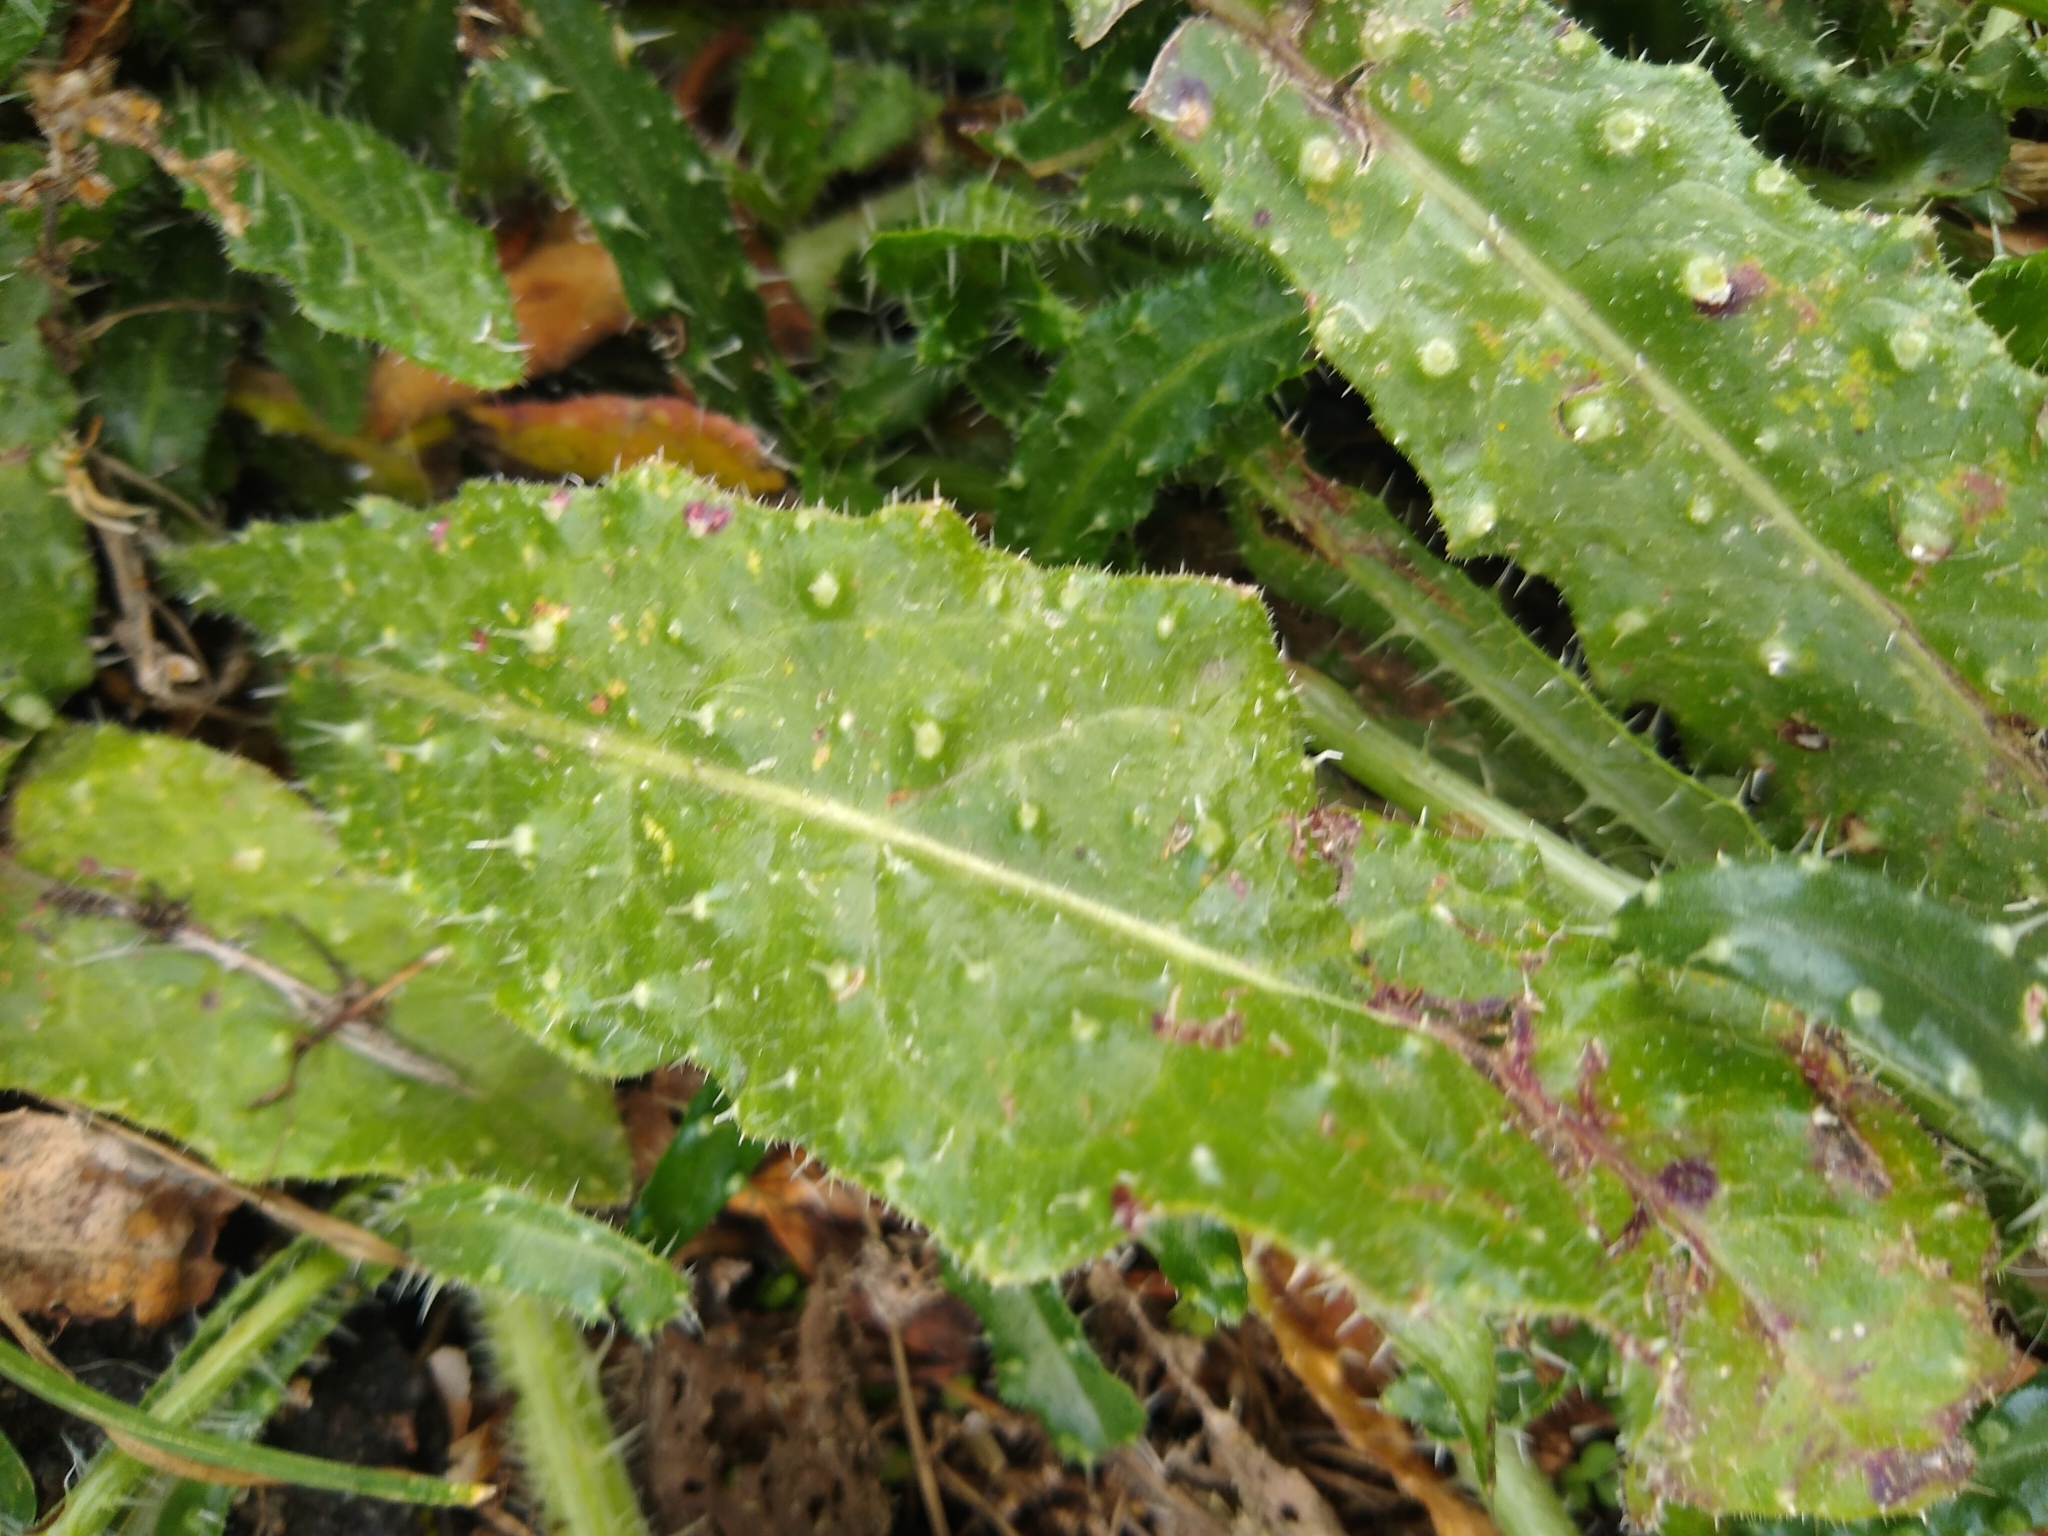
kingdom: Plantae
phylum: Tracheophyta
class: Magnoliopsida
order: Asterales
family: Asteraceae
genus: Helminthotheca
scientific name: Helminthotheca echioides
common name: Ox-tongue
